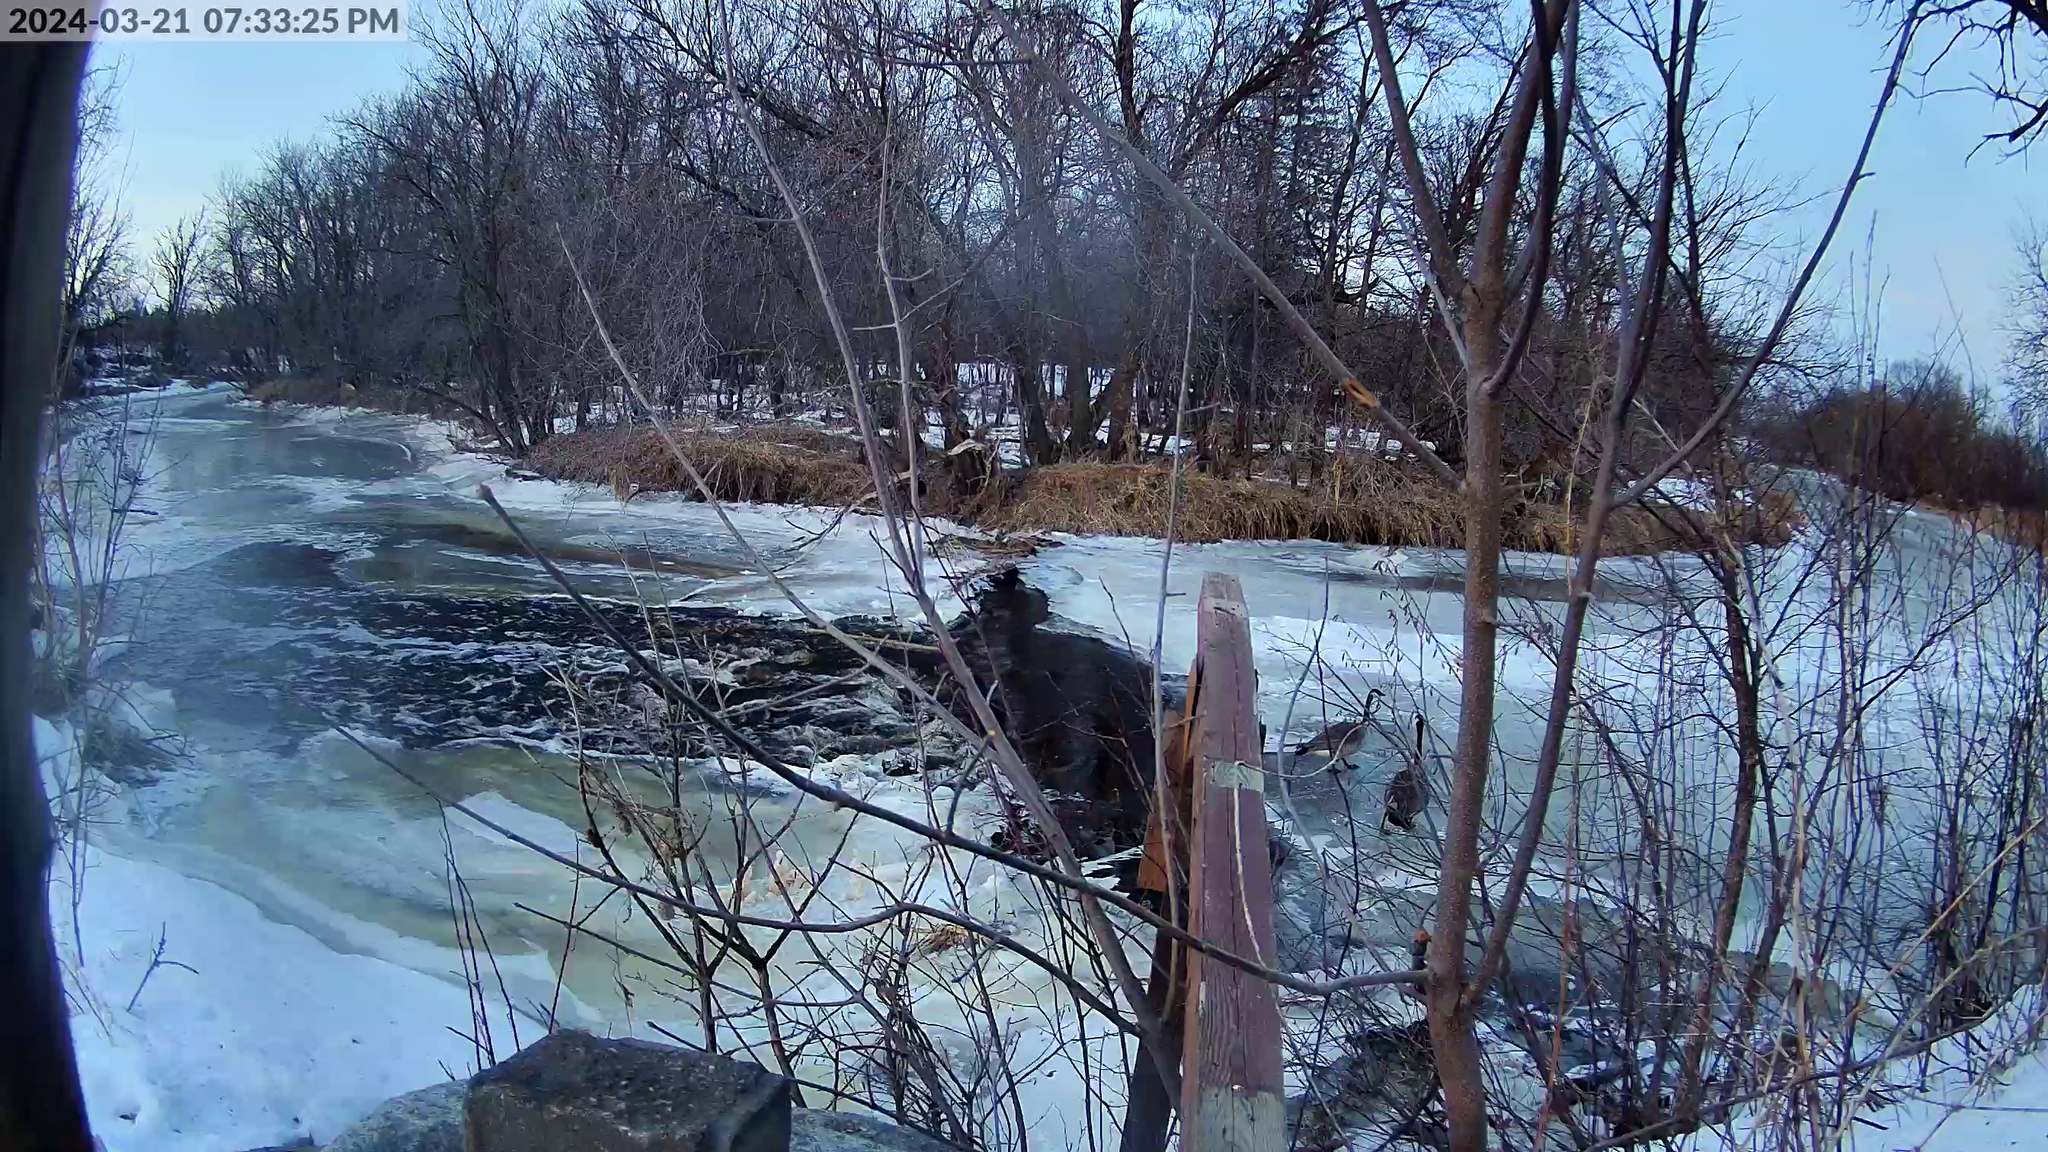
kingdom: Animalia
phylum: Chordata
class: Aves
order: Anseriformes
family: Anatidae
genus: Branta
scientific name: Branta canadensis
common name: Canada goose
